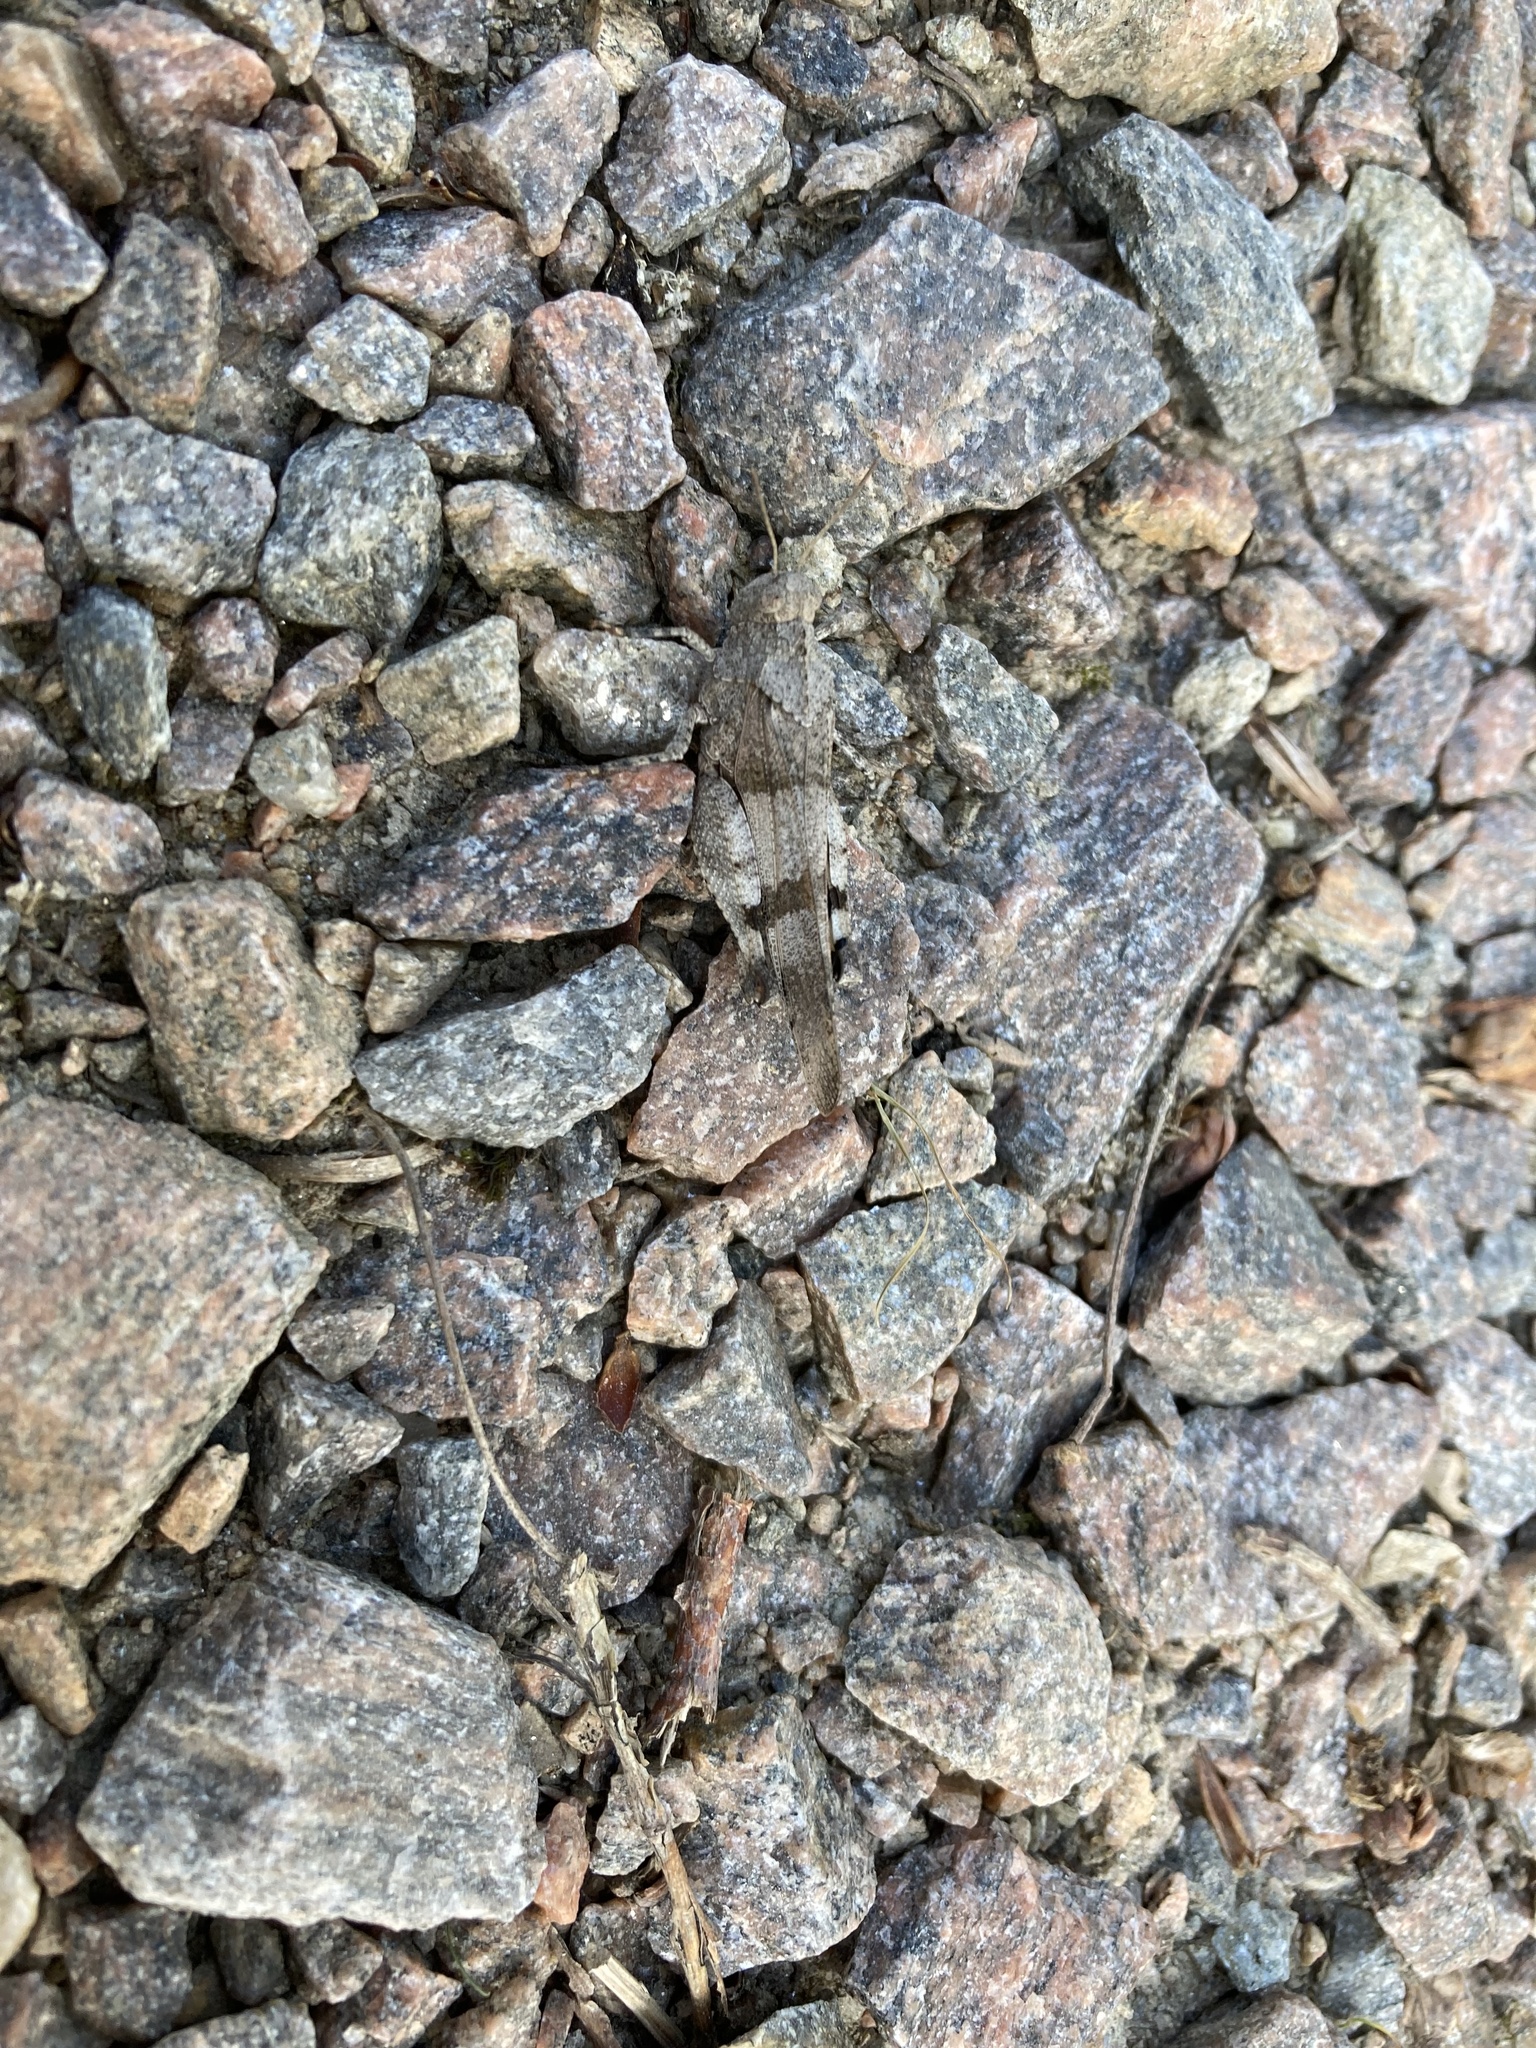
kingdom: Animalia
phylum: Arthropoda
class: Insecta
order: Orthoptera
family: Acrididae
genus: Oedipoda
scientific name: Oedipoda caerulescens
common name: Blue-winged grasshopper
